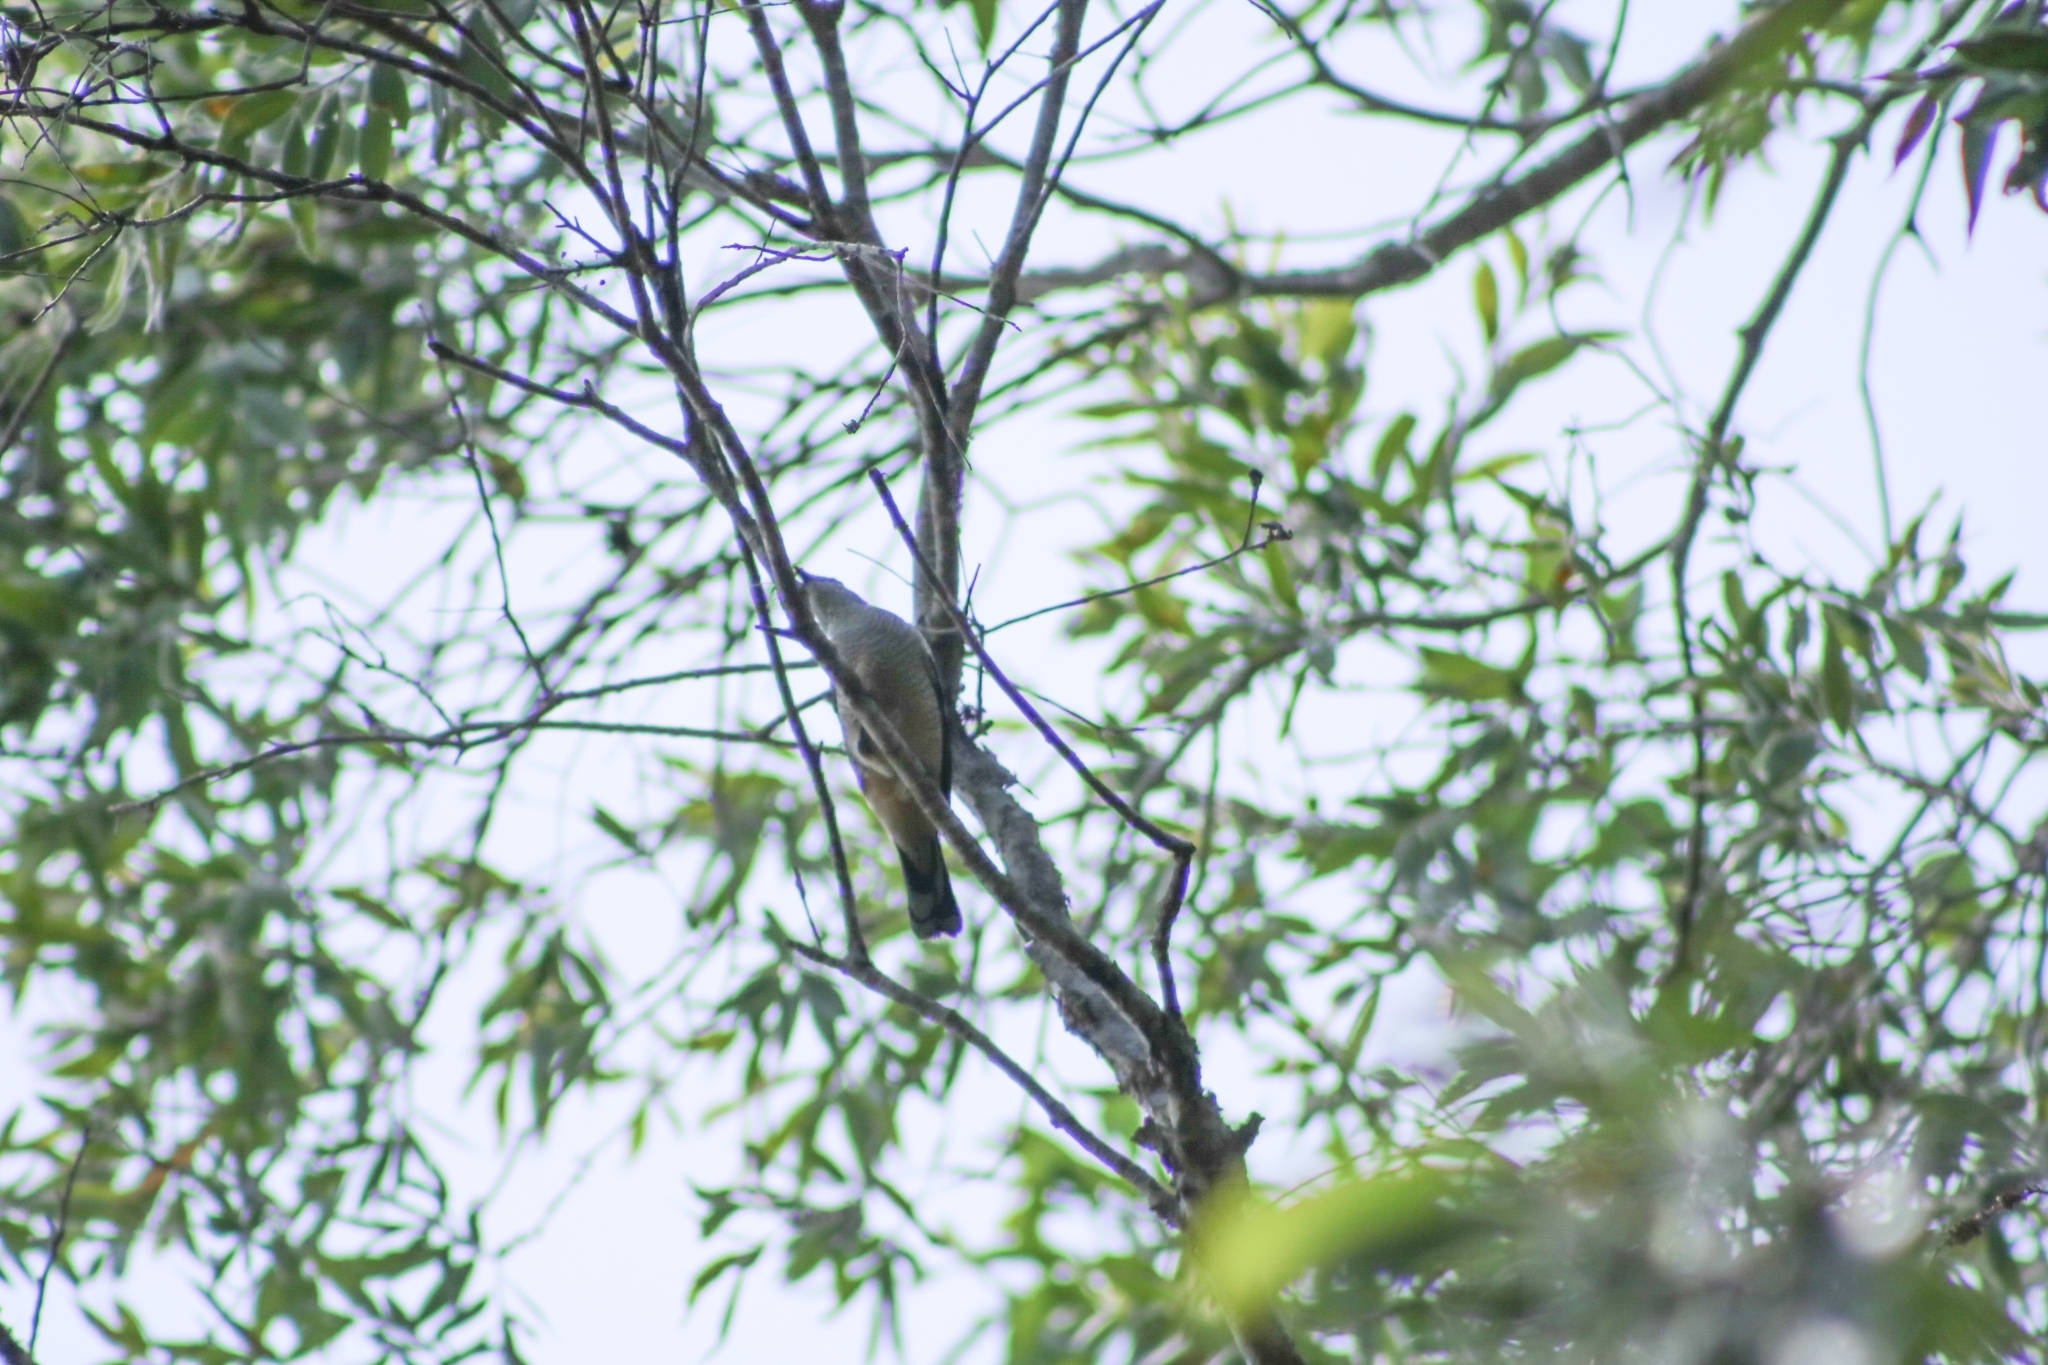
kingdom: Animalia
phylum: Chordata
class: Aves
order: Passeriformes
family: Campephagidae
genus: Lalage
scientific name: Lalage leucomela
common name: Varied triller
